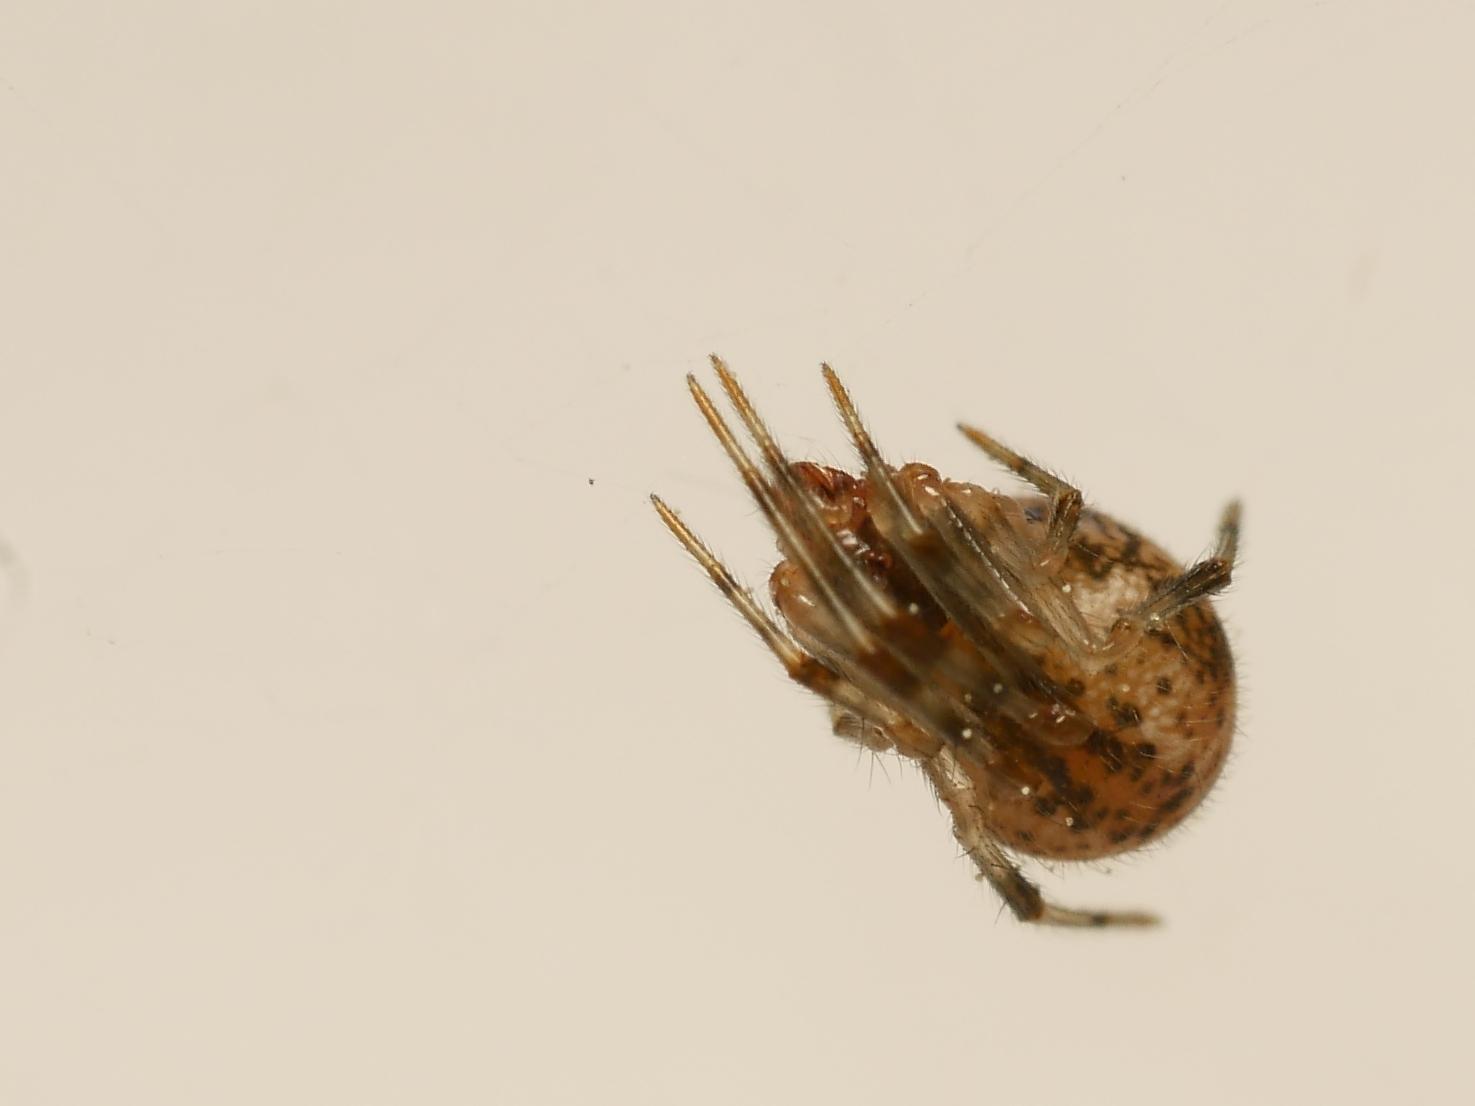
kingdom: Animalia
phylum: Arthropoda
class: Arachnida
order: Araneae
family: Theridiidae
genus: Parasteatoda
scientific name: Parasteatoda tepidariorum
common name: Common house spider
